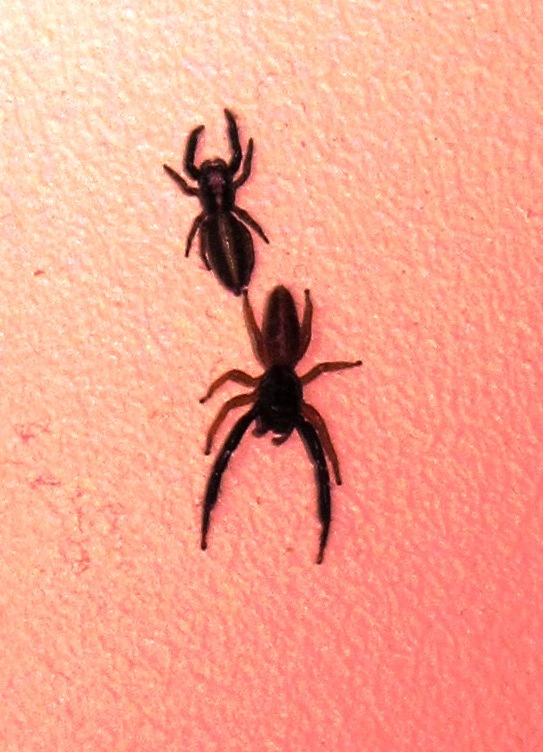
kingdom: Animalia
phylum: Arthropoda
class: Arachnida
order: Araneae
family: Salticidae
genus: Trite
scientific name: Trite planiceps
